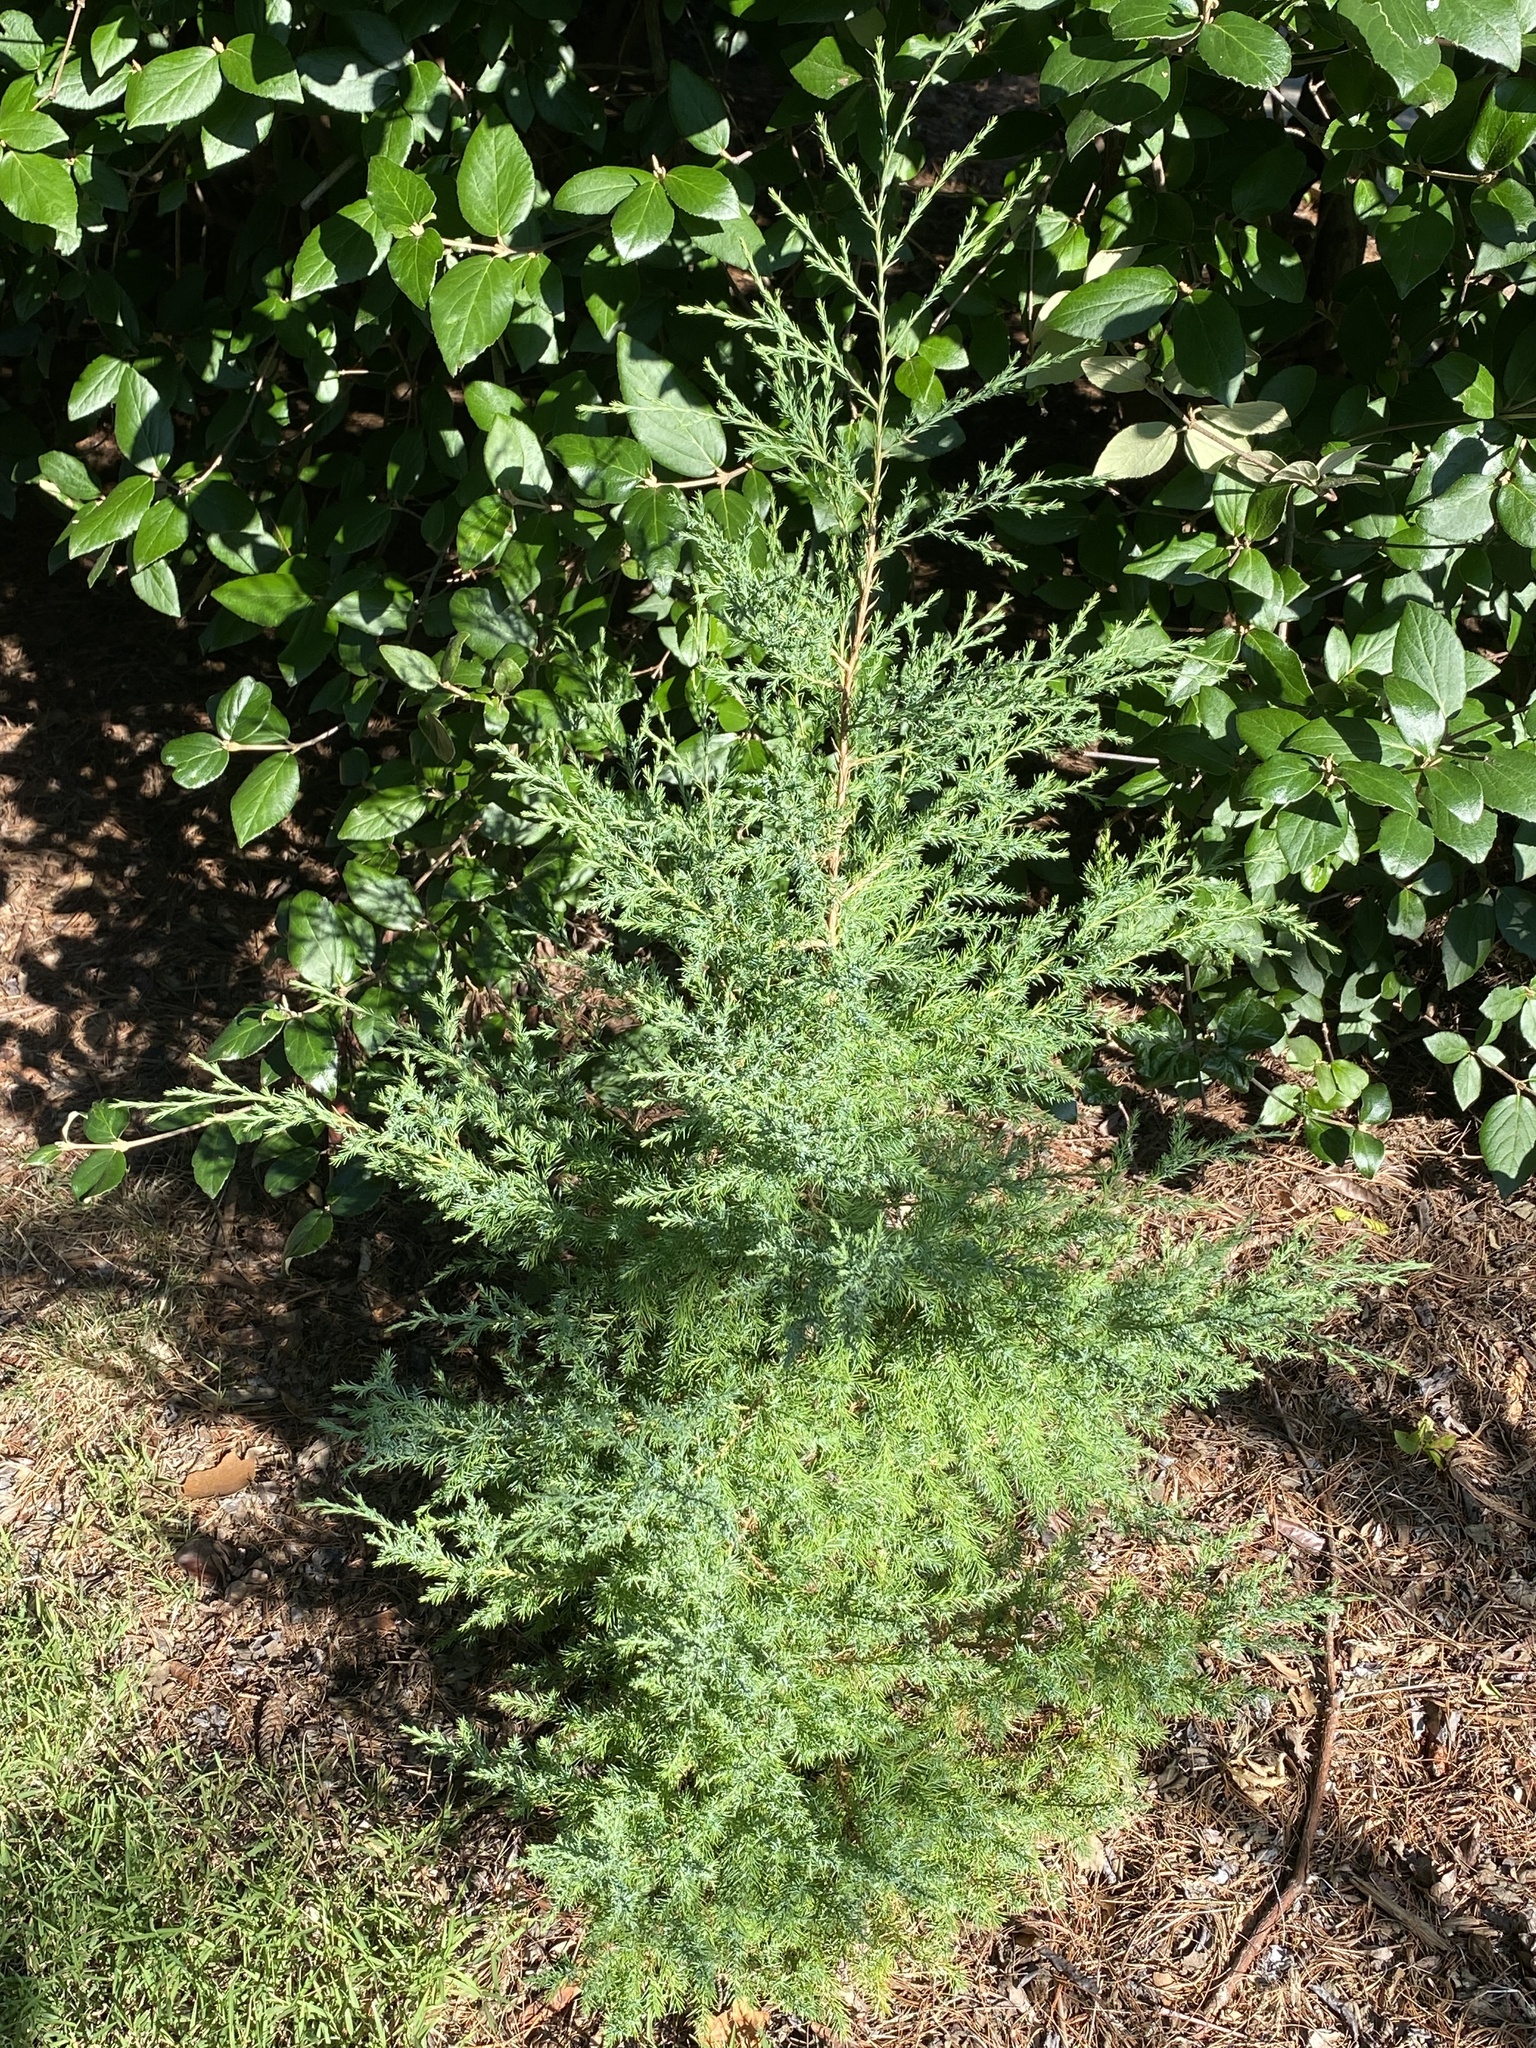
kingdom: Plantae
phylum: Tracheophyta
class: Pinopsida
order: Pinales
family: Cupressaceae
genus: Juniperus
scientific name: Juniperus virginiana
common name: Red juniper
